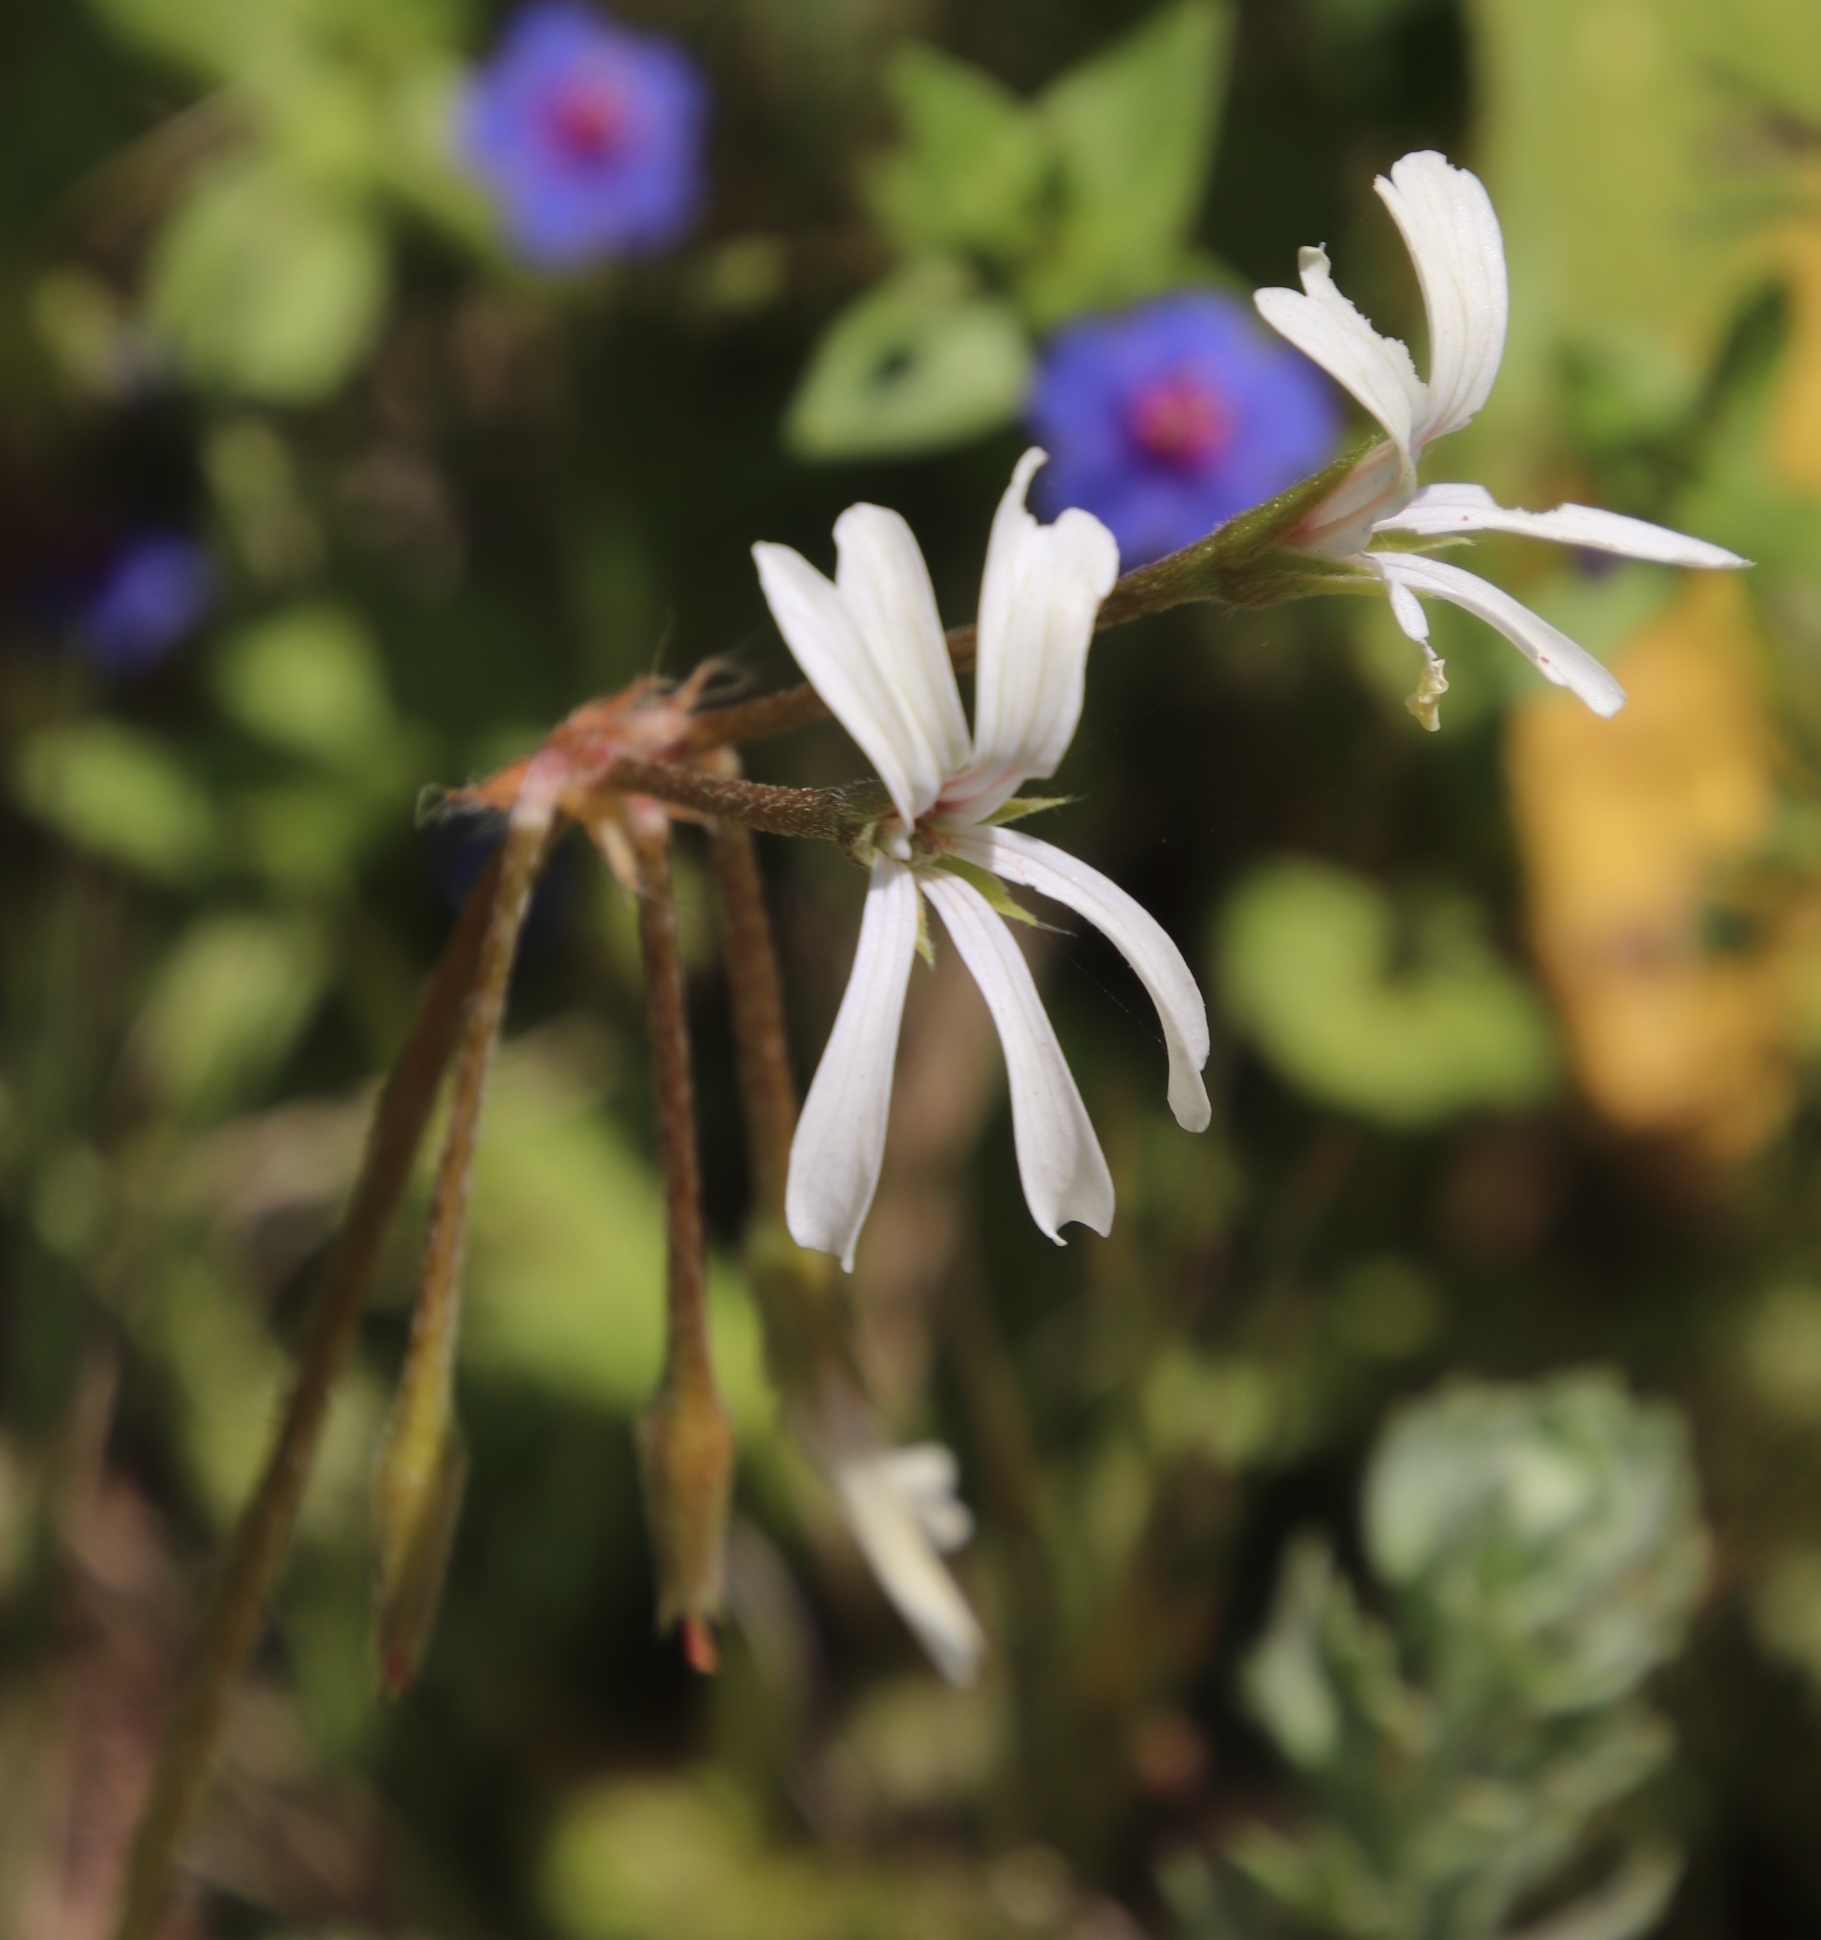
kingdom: Plantae
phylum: Tracheophyta
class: Magnoliopsida
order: Geraniales
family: Geraniaceae
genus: Pelargonium
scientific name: Pelargonium alchemilloides
